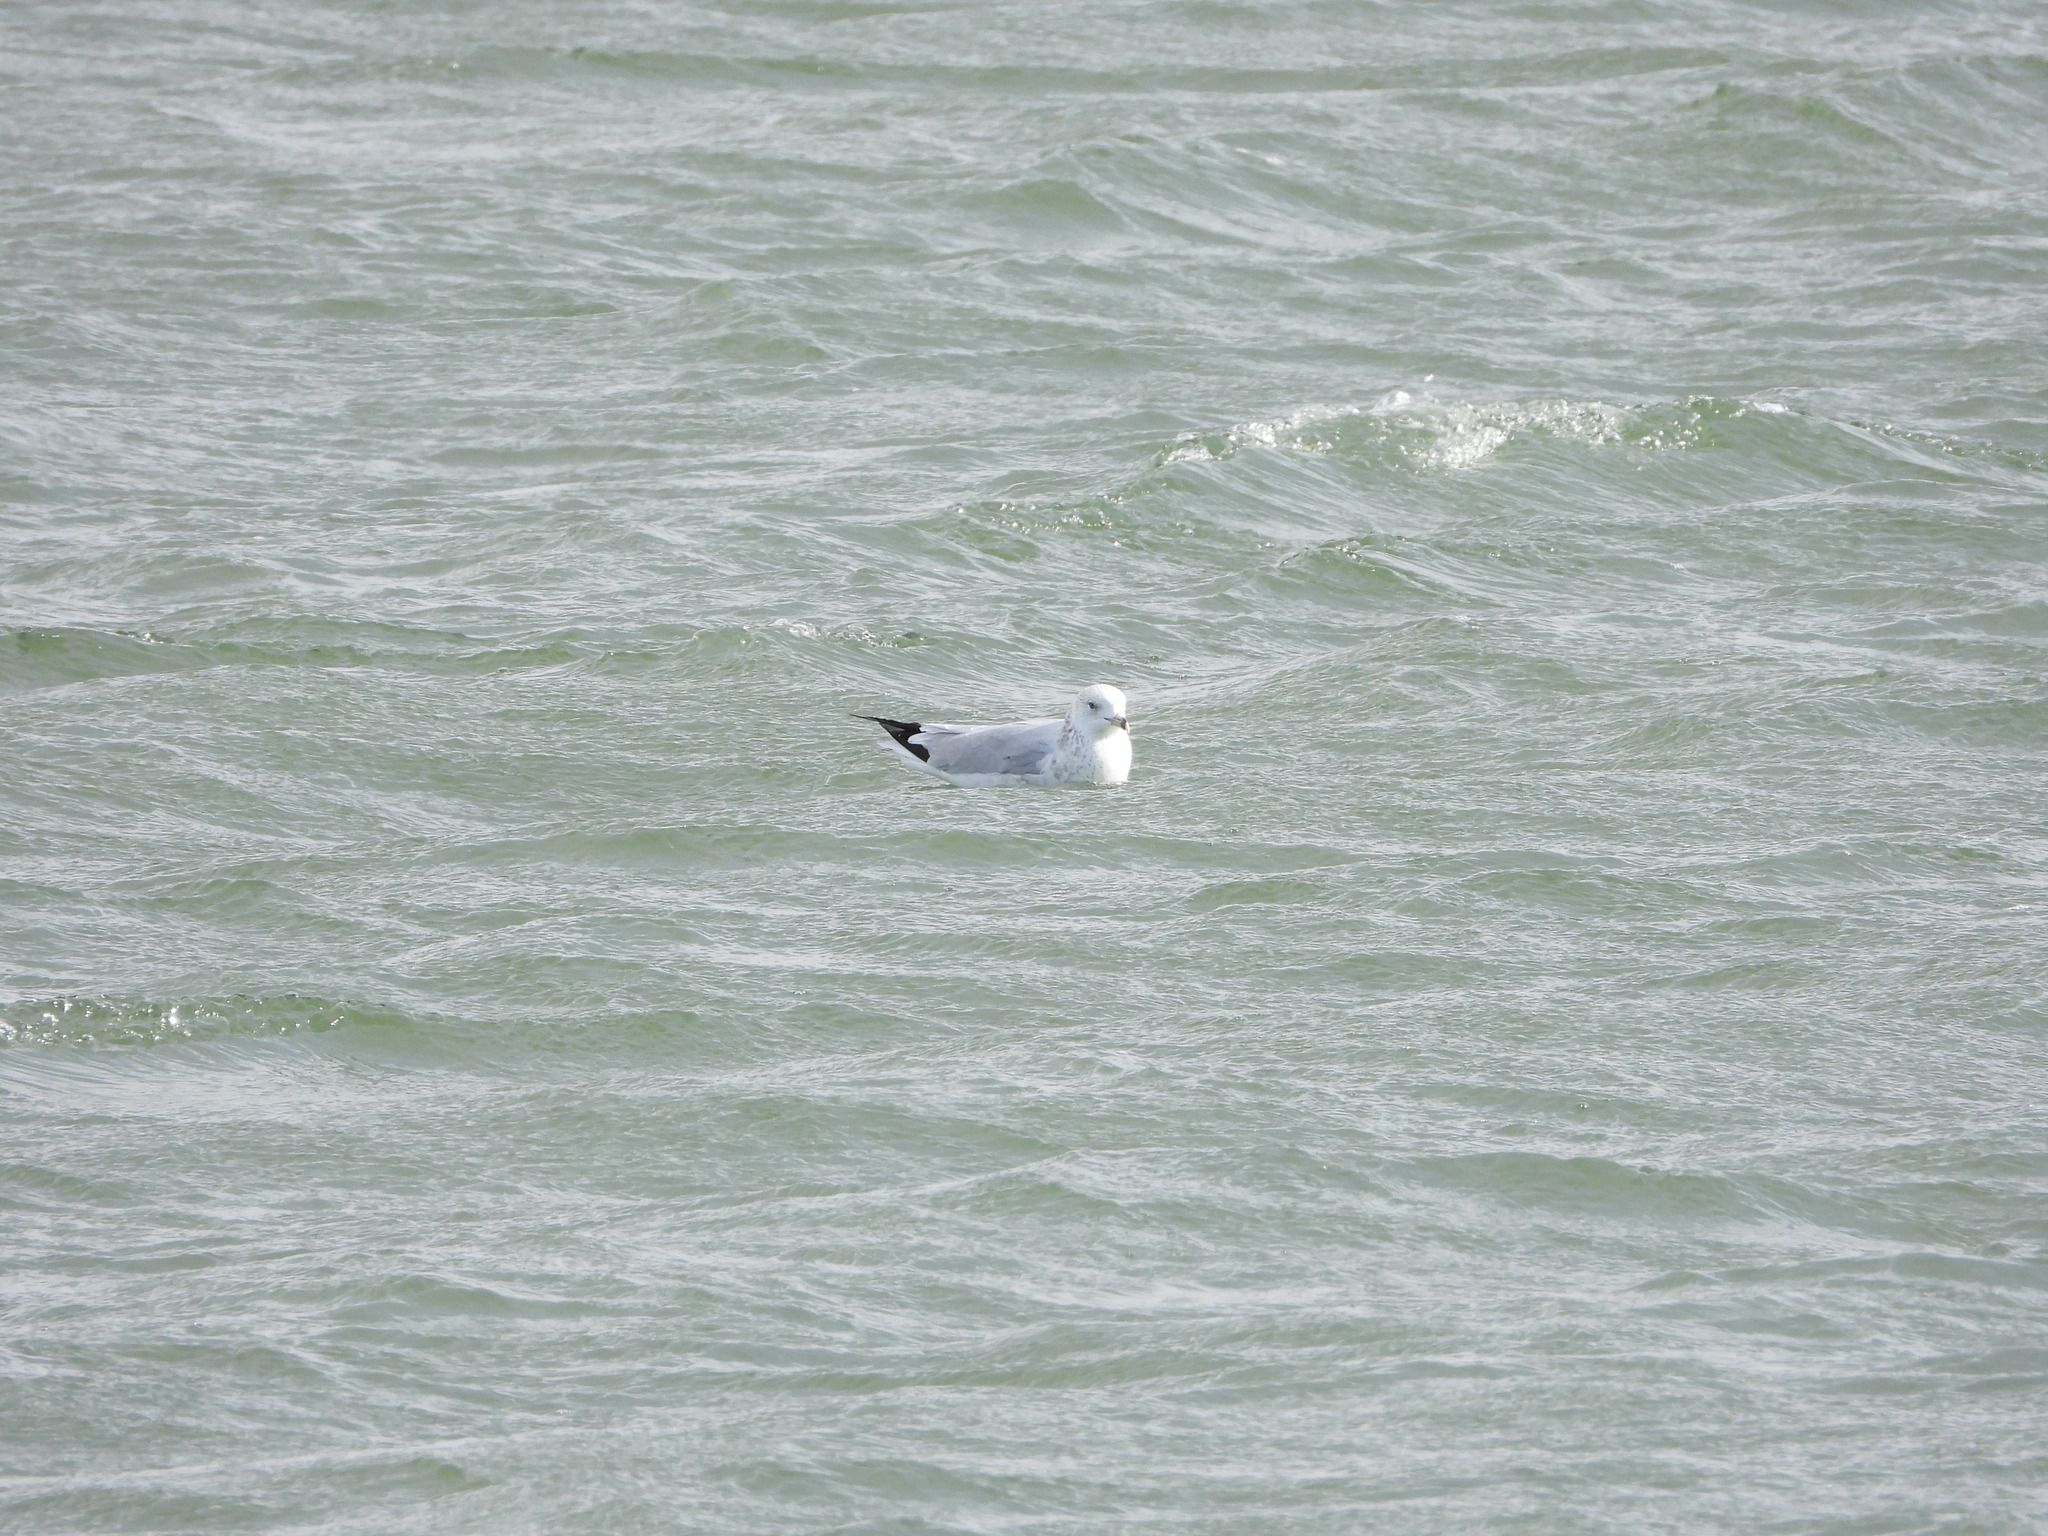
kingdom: Animalia
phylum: Chordata
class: Aves
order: Charadriiformes
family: Laridae
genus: Larus
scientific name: Larus delawarensis
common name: Ring-billed gull
